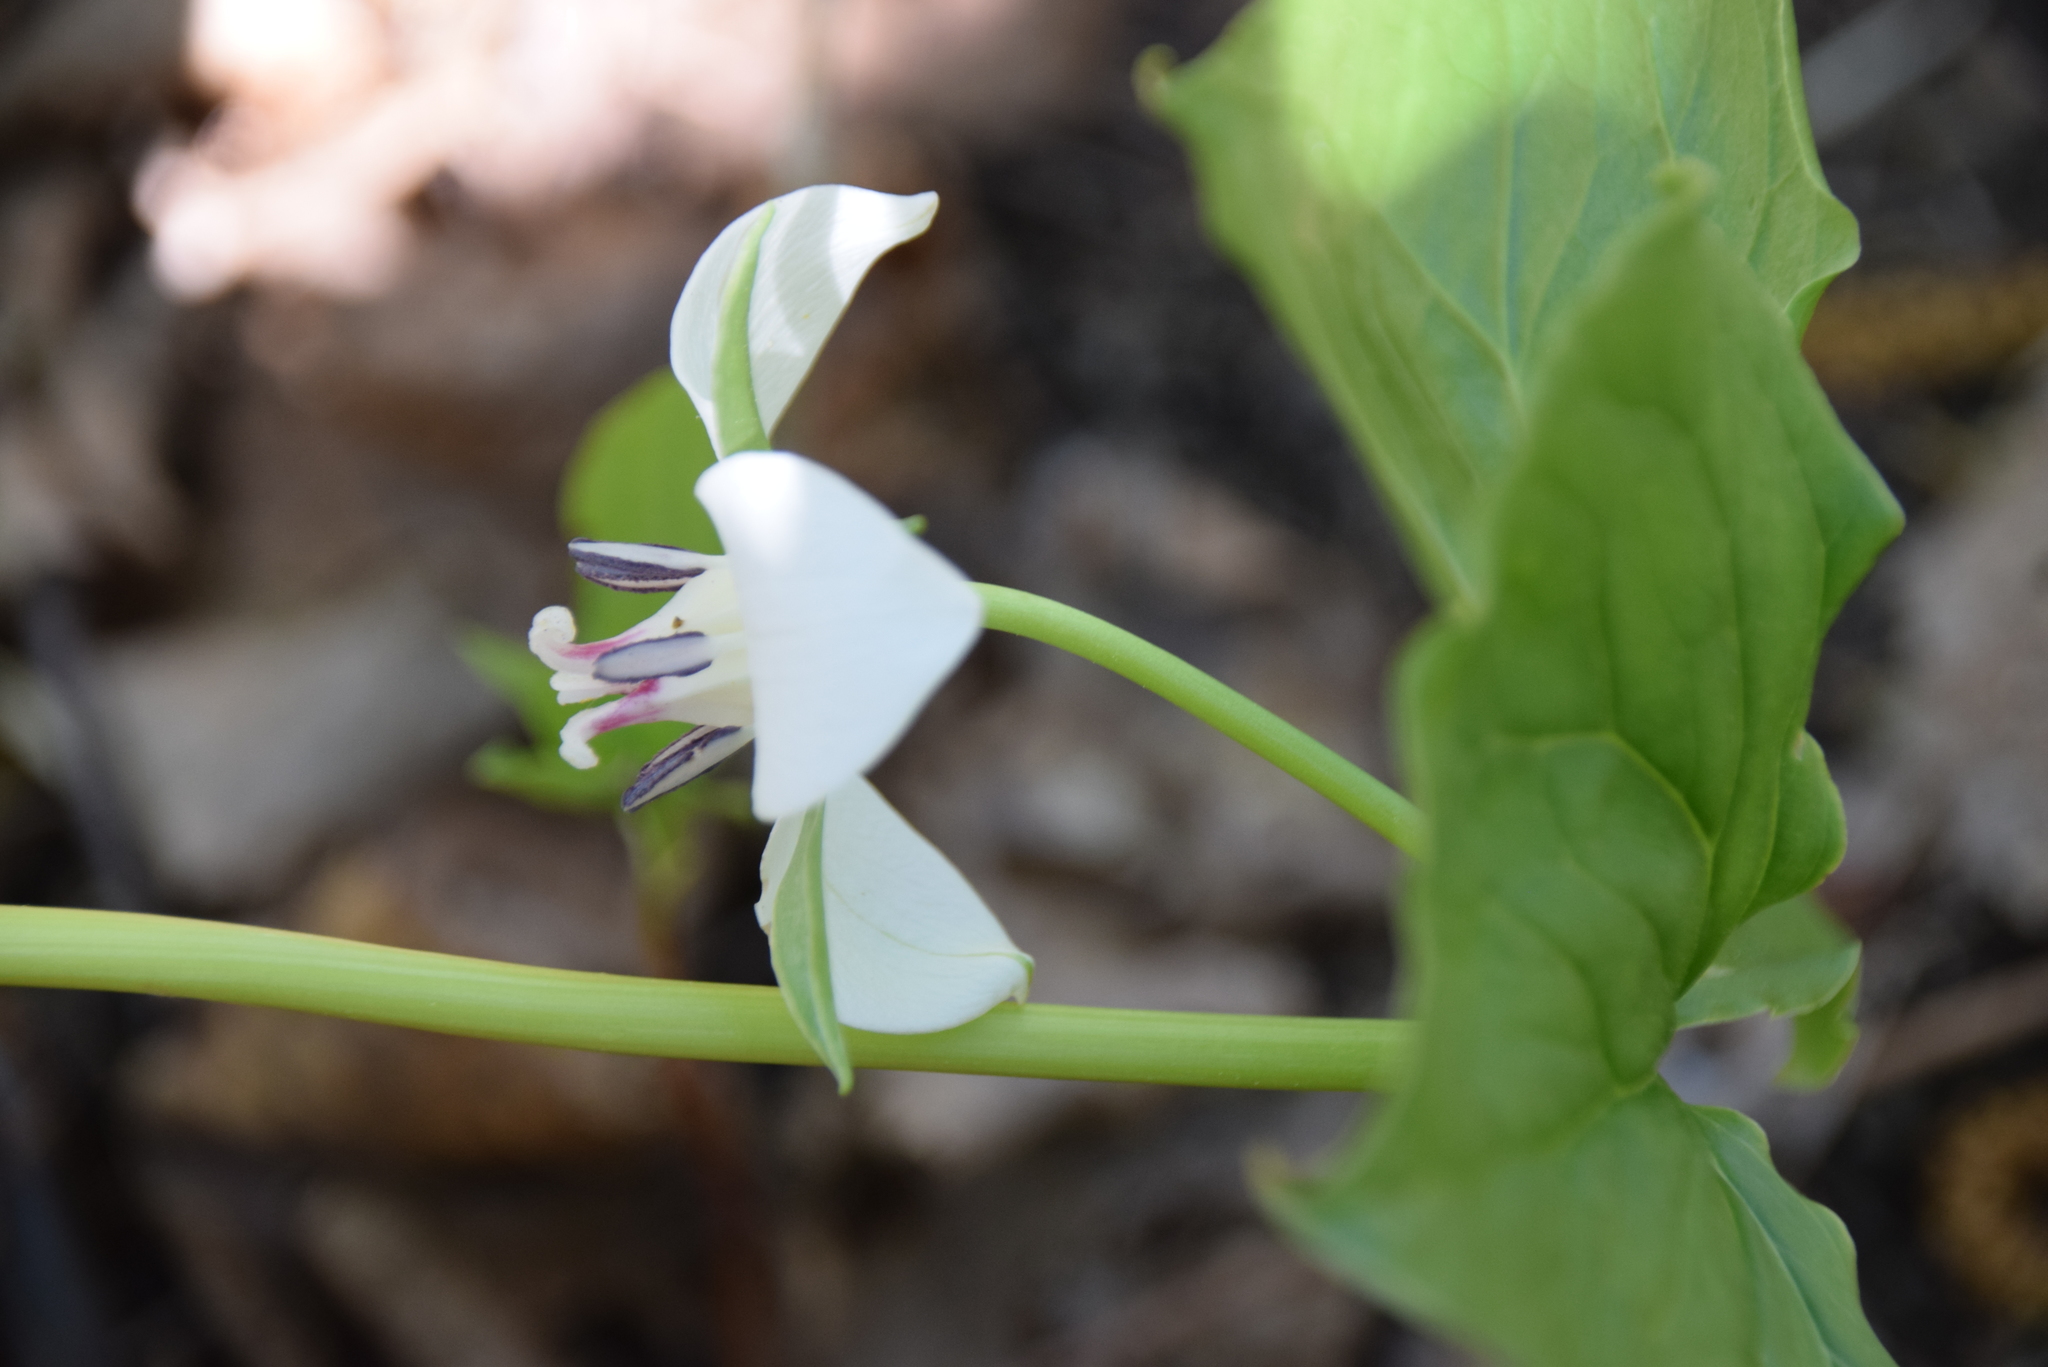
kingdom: Plantae
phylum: Tracheophyta
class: Liliopsida
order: Liliales
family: Melanthiaceae
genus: Trillium
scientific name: Trillium cernuum
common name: Nodding trillium
